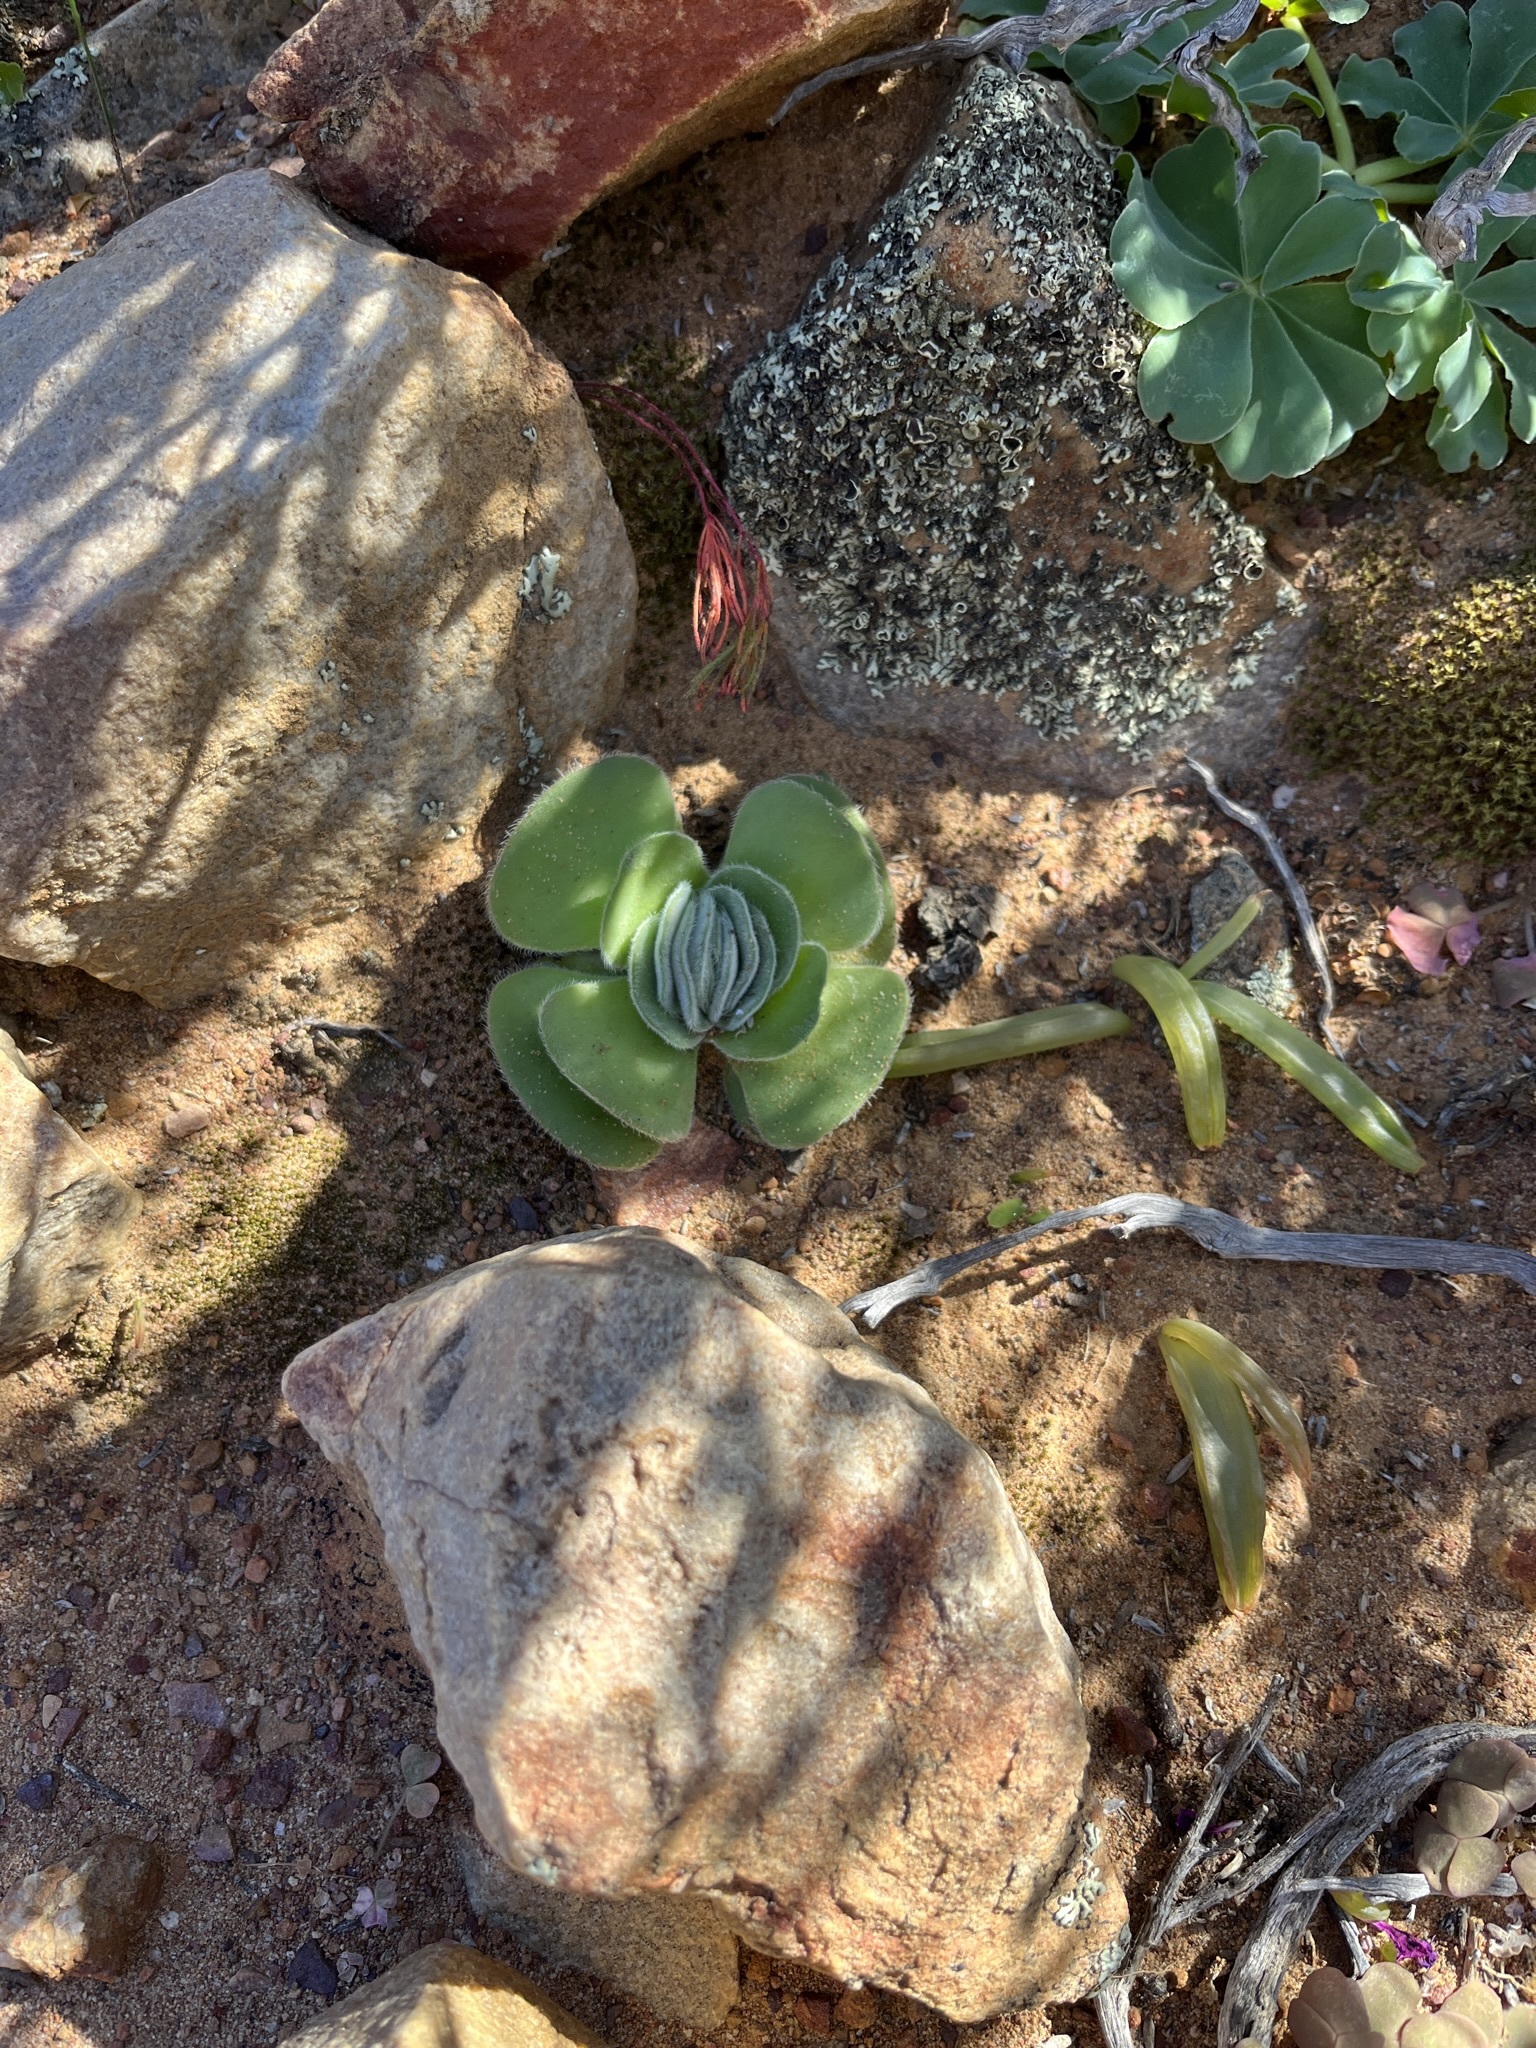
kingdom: Plantae
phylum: Tracheophyta
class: Magnoliopsida
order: Saxifragales
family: Crassulaceae
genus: Crassula
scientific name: Crassula tomentosa
